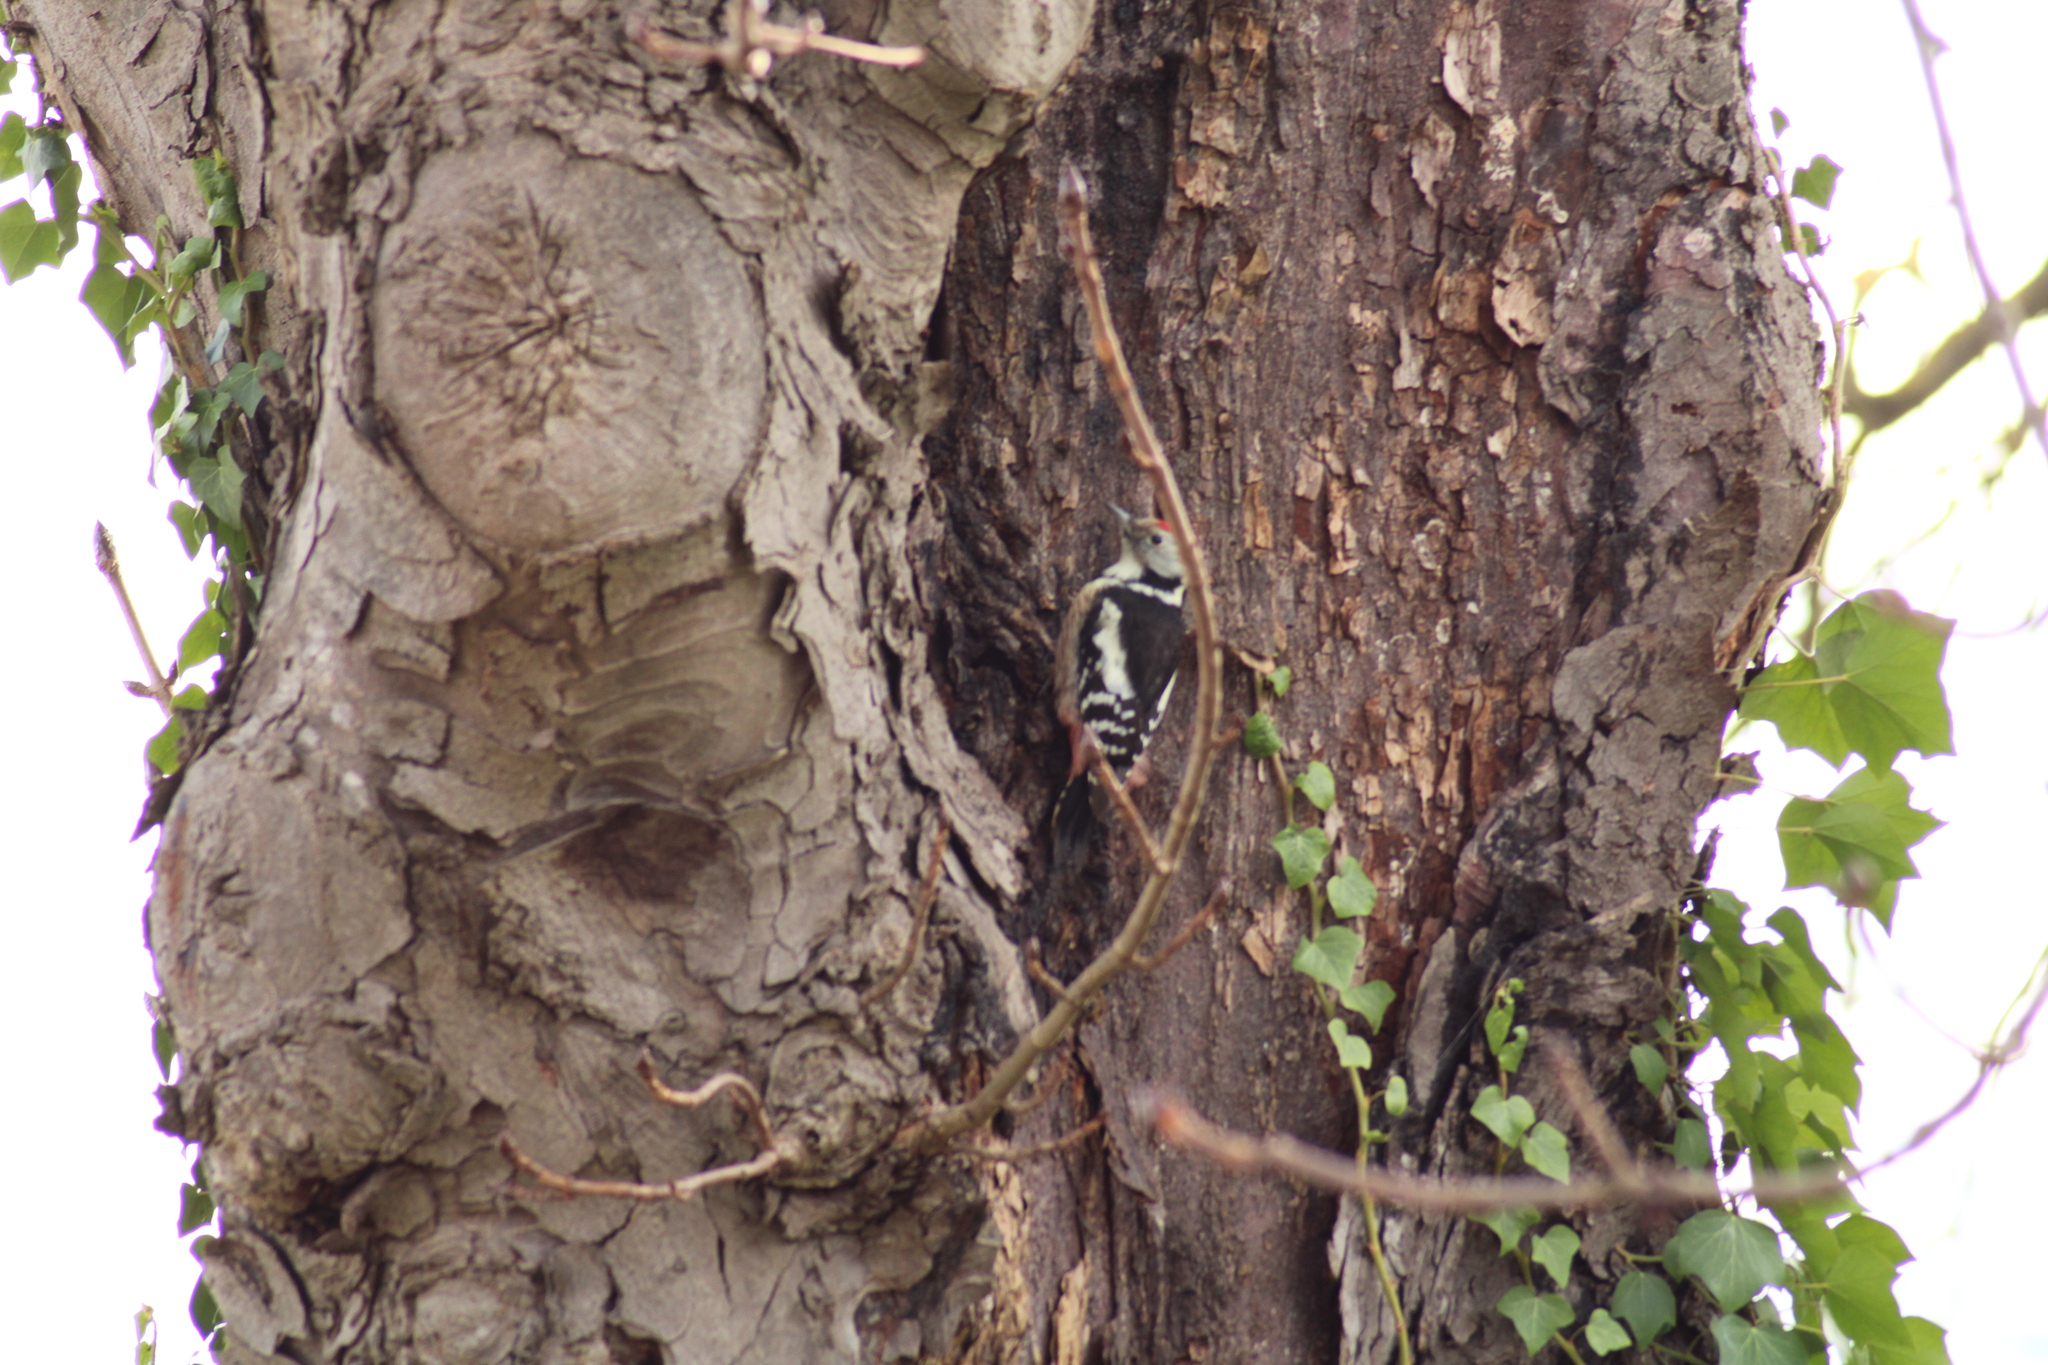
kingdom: Animalia
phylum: Chordata
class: Aves
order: Piciformes
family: Picidae
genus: Dendrocoptes
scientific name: Dendrocoptes medius
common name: Middle spotted woodpecker
